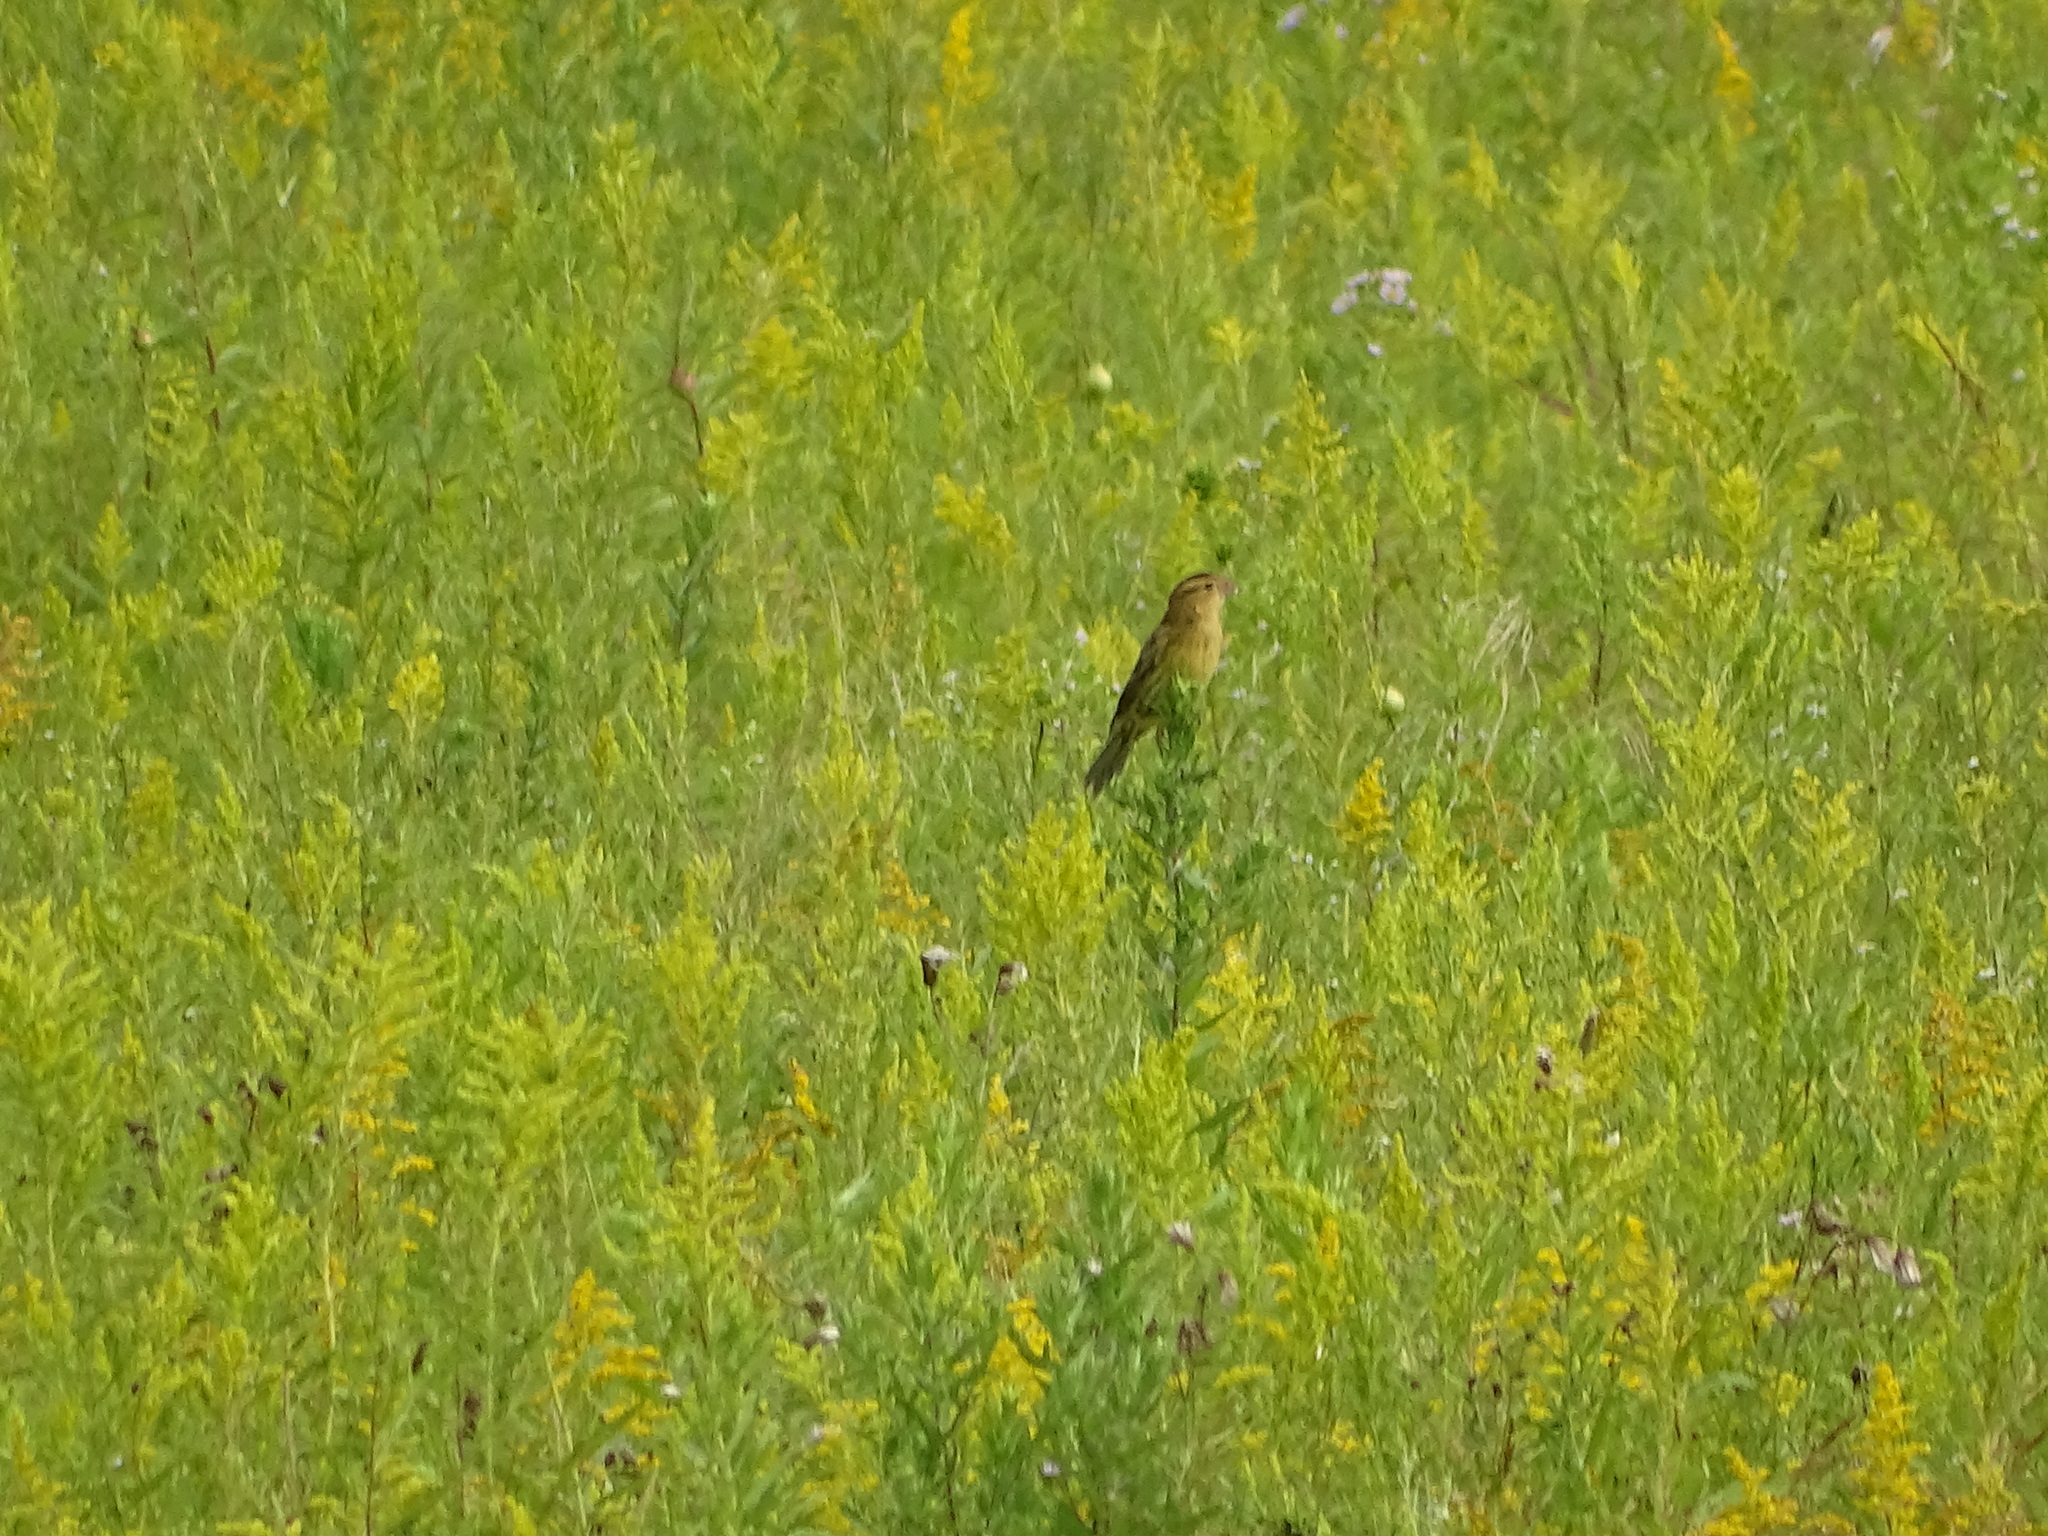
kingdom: Animalia
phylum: Chordata
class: Aves
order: Passeriformes
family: Icteridae
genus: Dolichonyx
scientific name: Dolichonyx oryzivorus
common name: Bobolink
